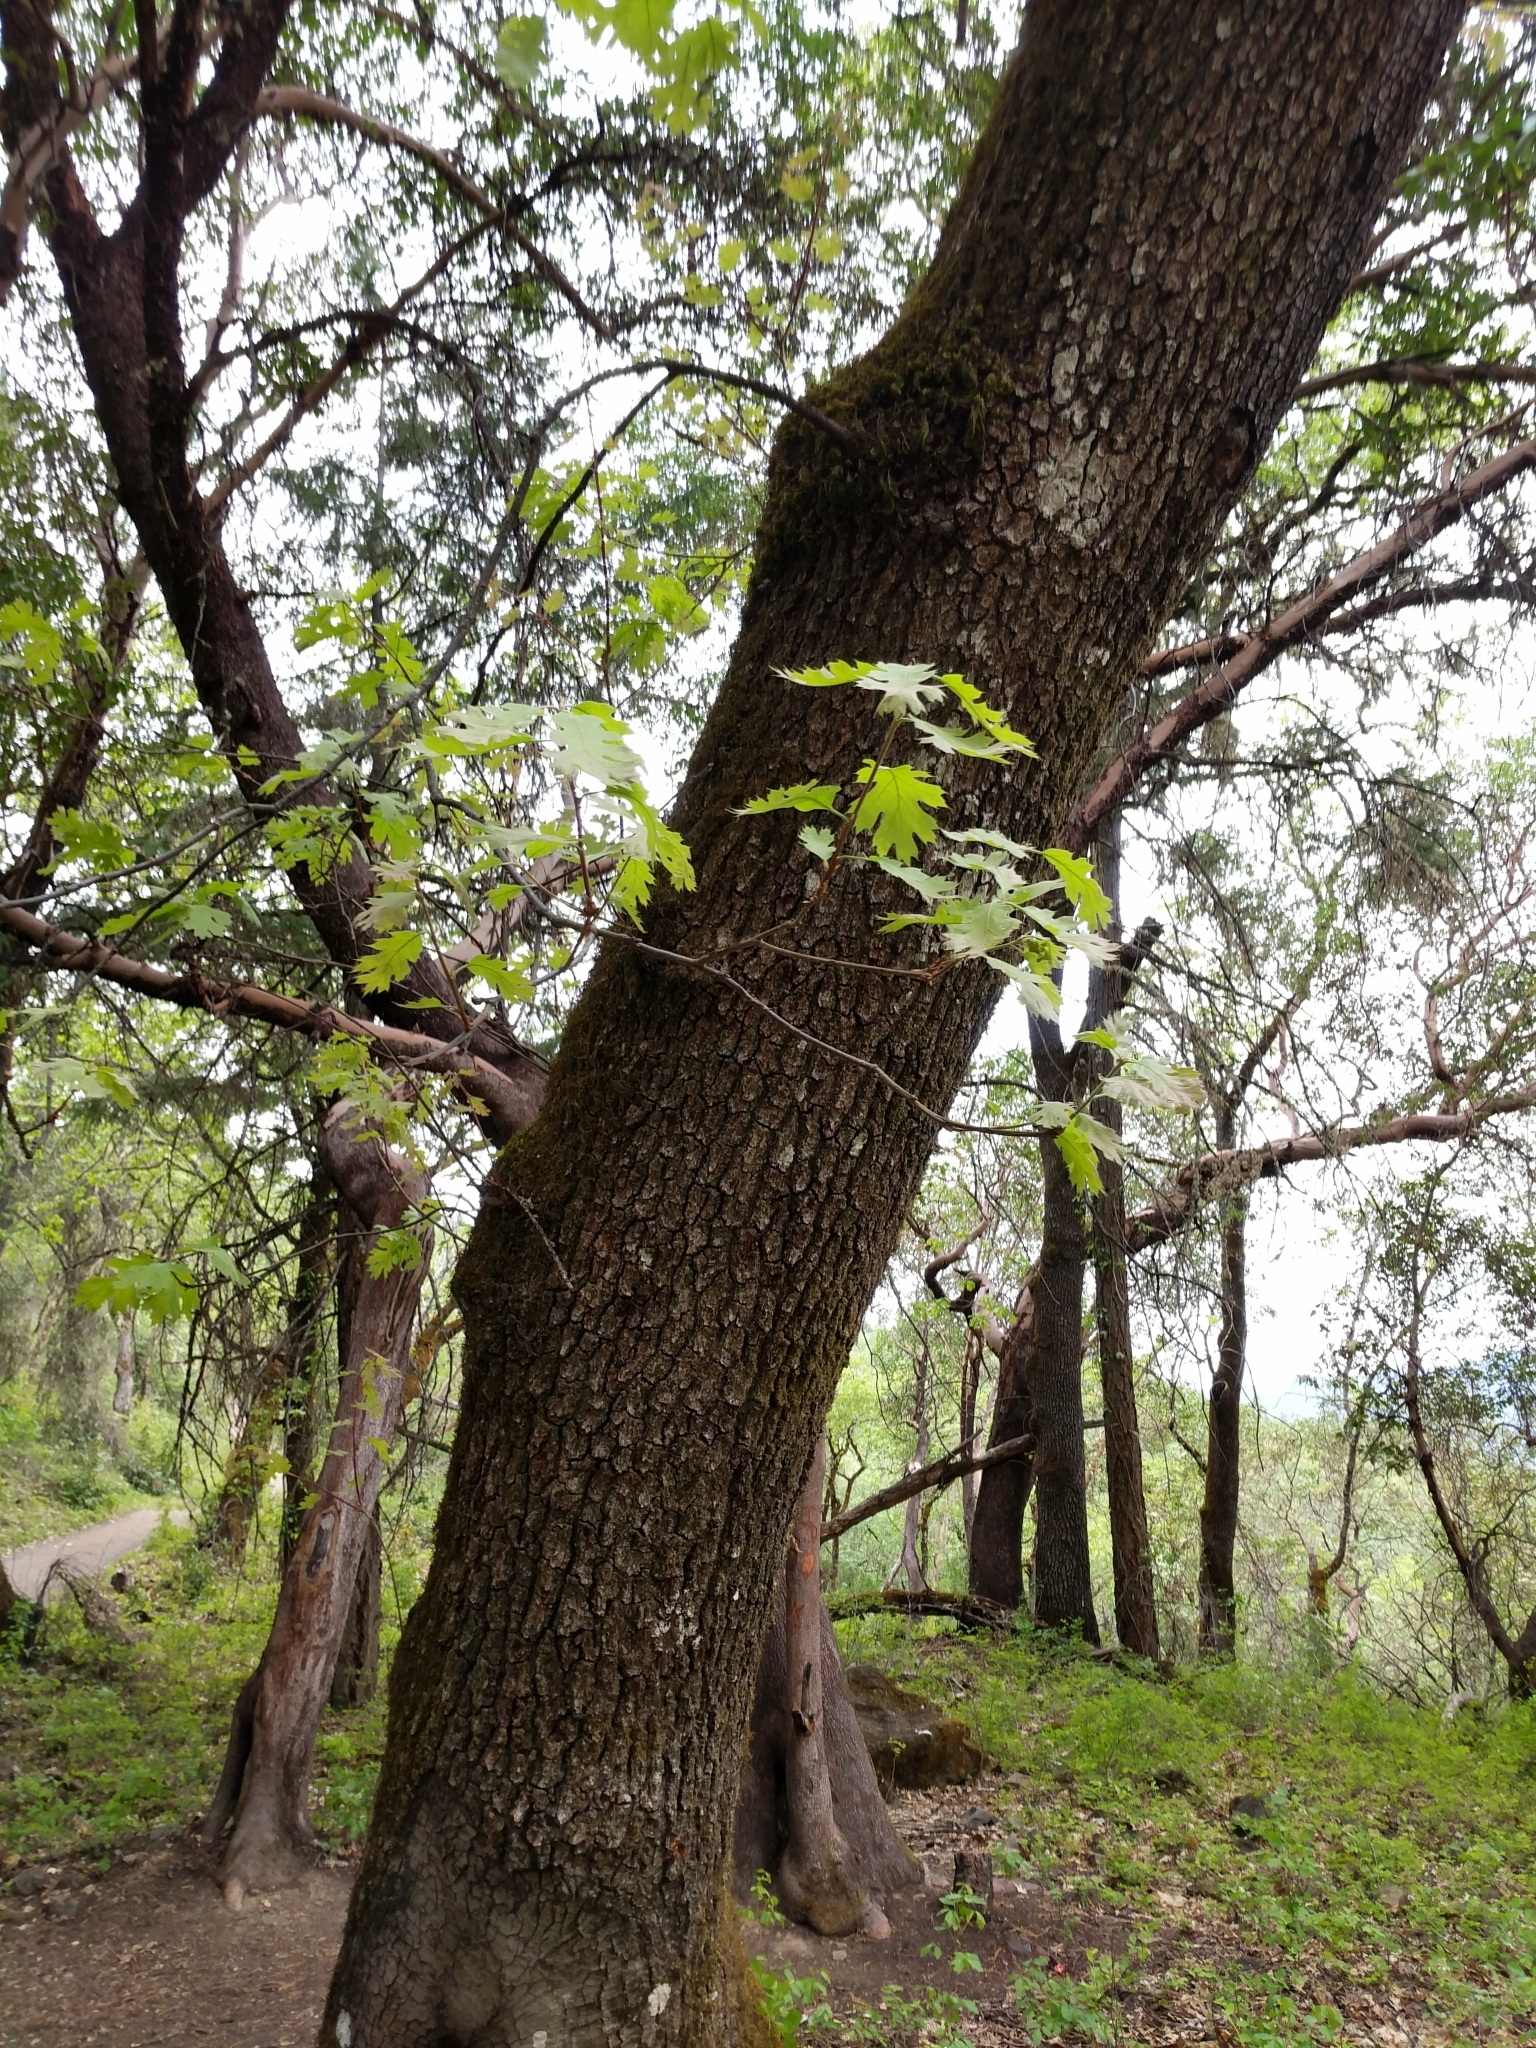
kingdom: Plantae
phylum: Tracheophyta
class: Magnoliopsida
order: Fagales
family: Fagaceae
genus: Quercus
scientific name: Quercus kelloggii
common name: California black oak
